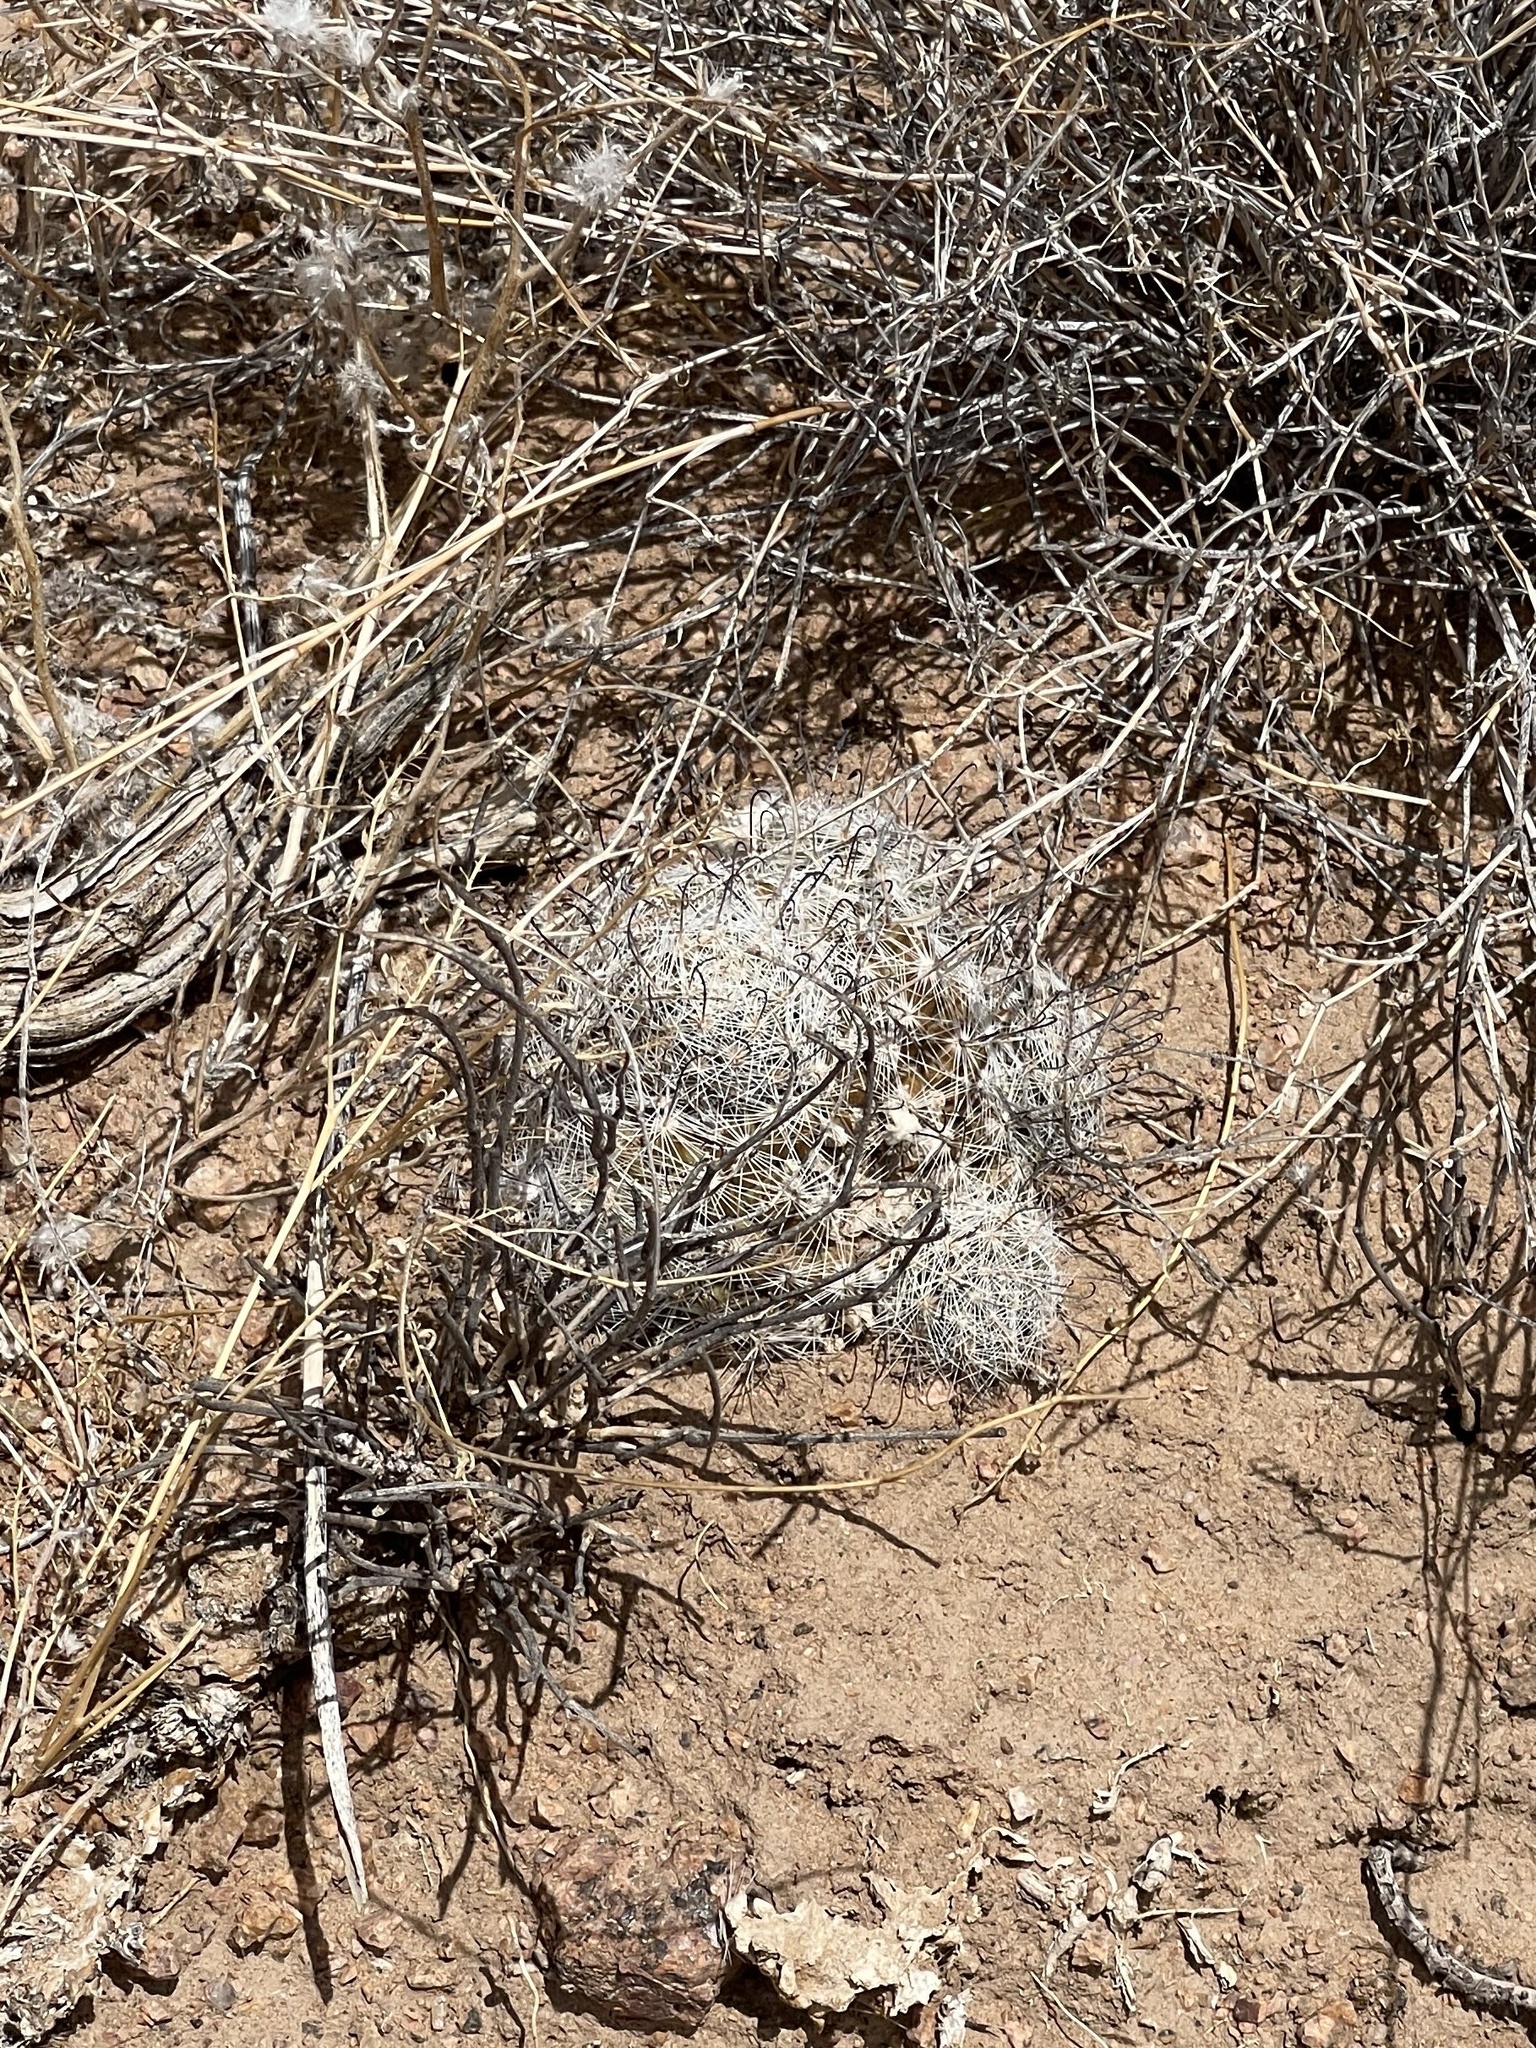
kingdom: Plantae
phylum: Tracheophyta
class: Magnoliopsida
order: Caryophyllales
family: Cactaceae
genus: Cochemiea
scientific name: Cochemiea grahamii
